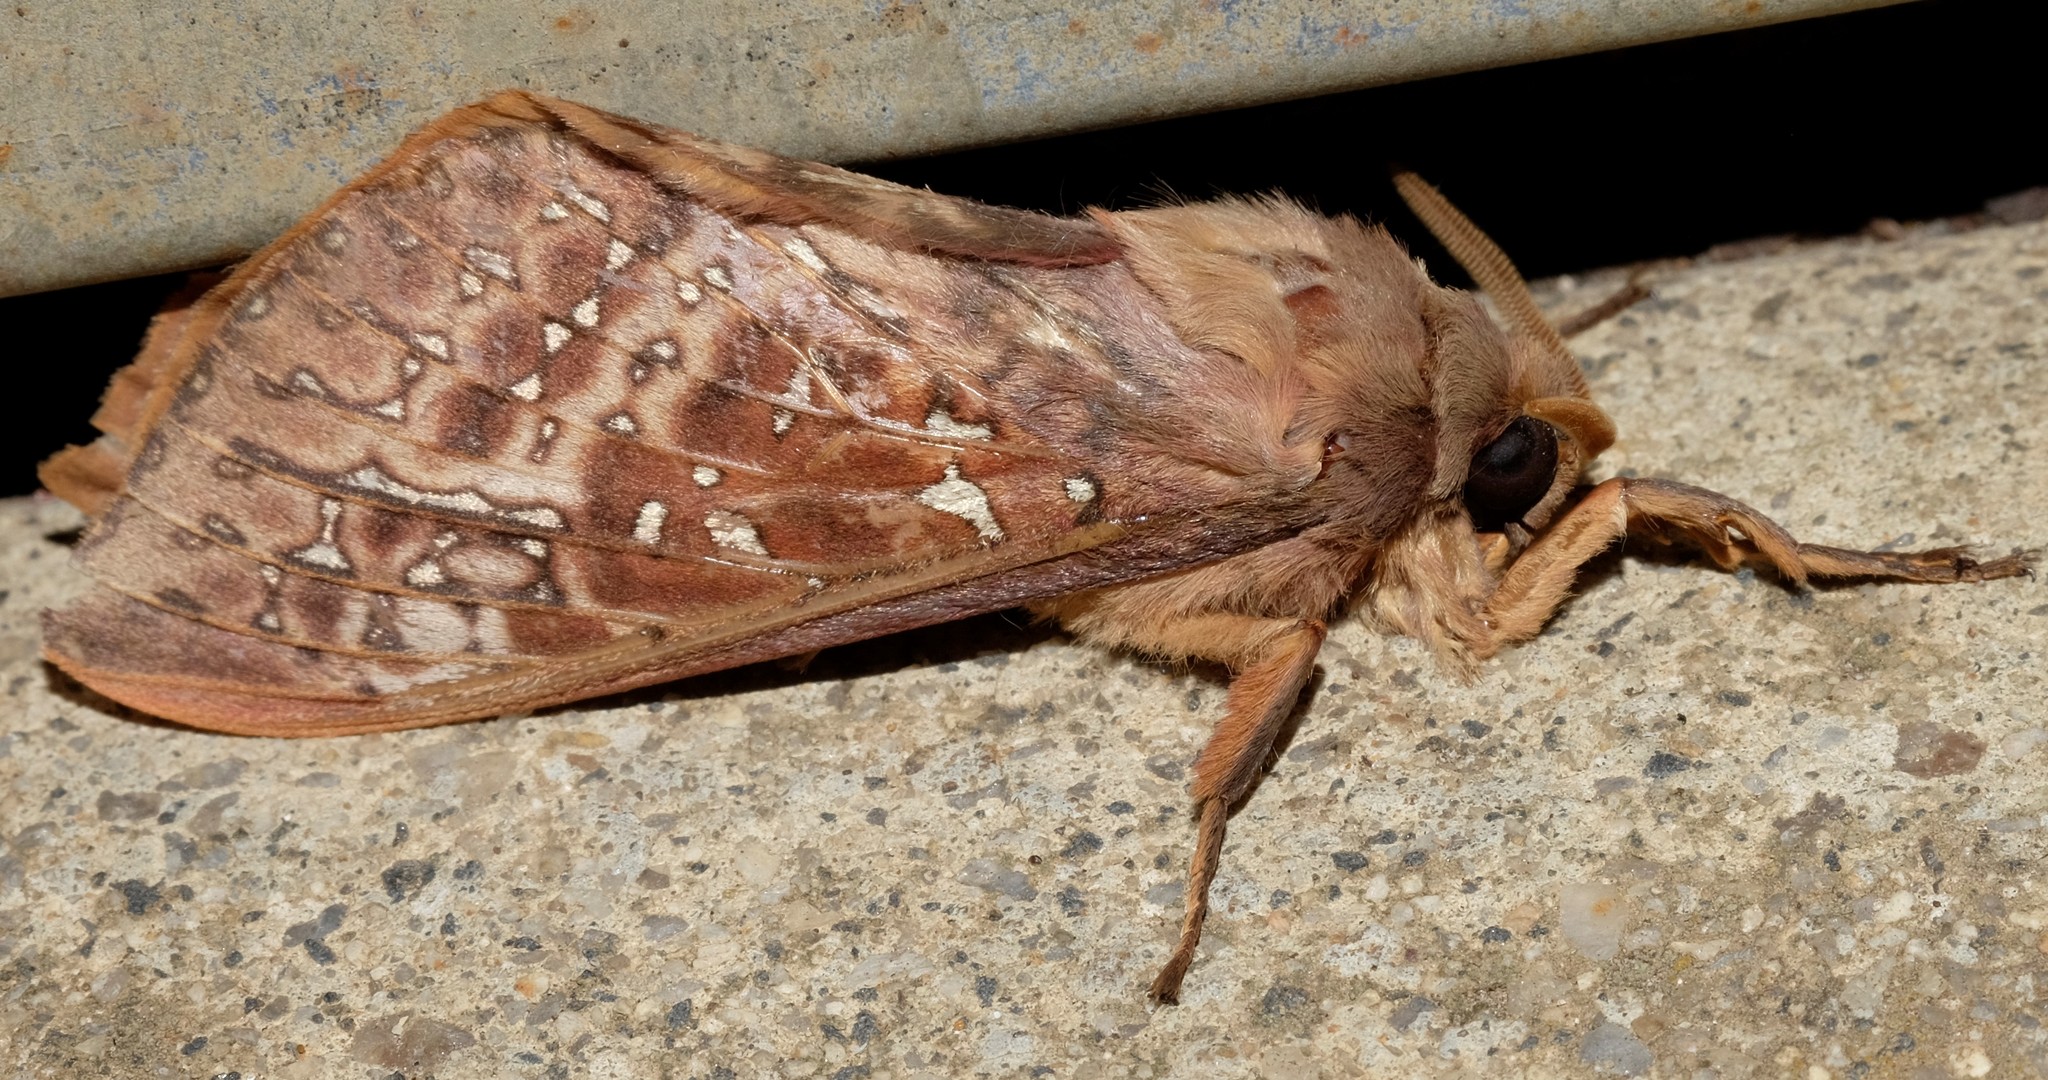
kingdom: Animalia
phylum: Arthropoda
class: Insecta
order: Lepidoptera
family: Hepialidae
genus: Oxycanus
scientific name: Oxycanus australis
